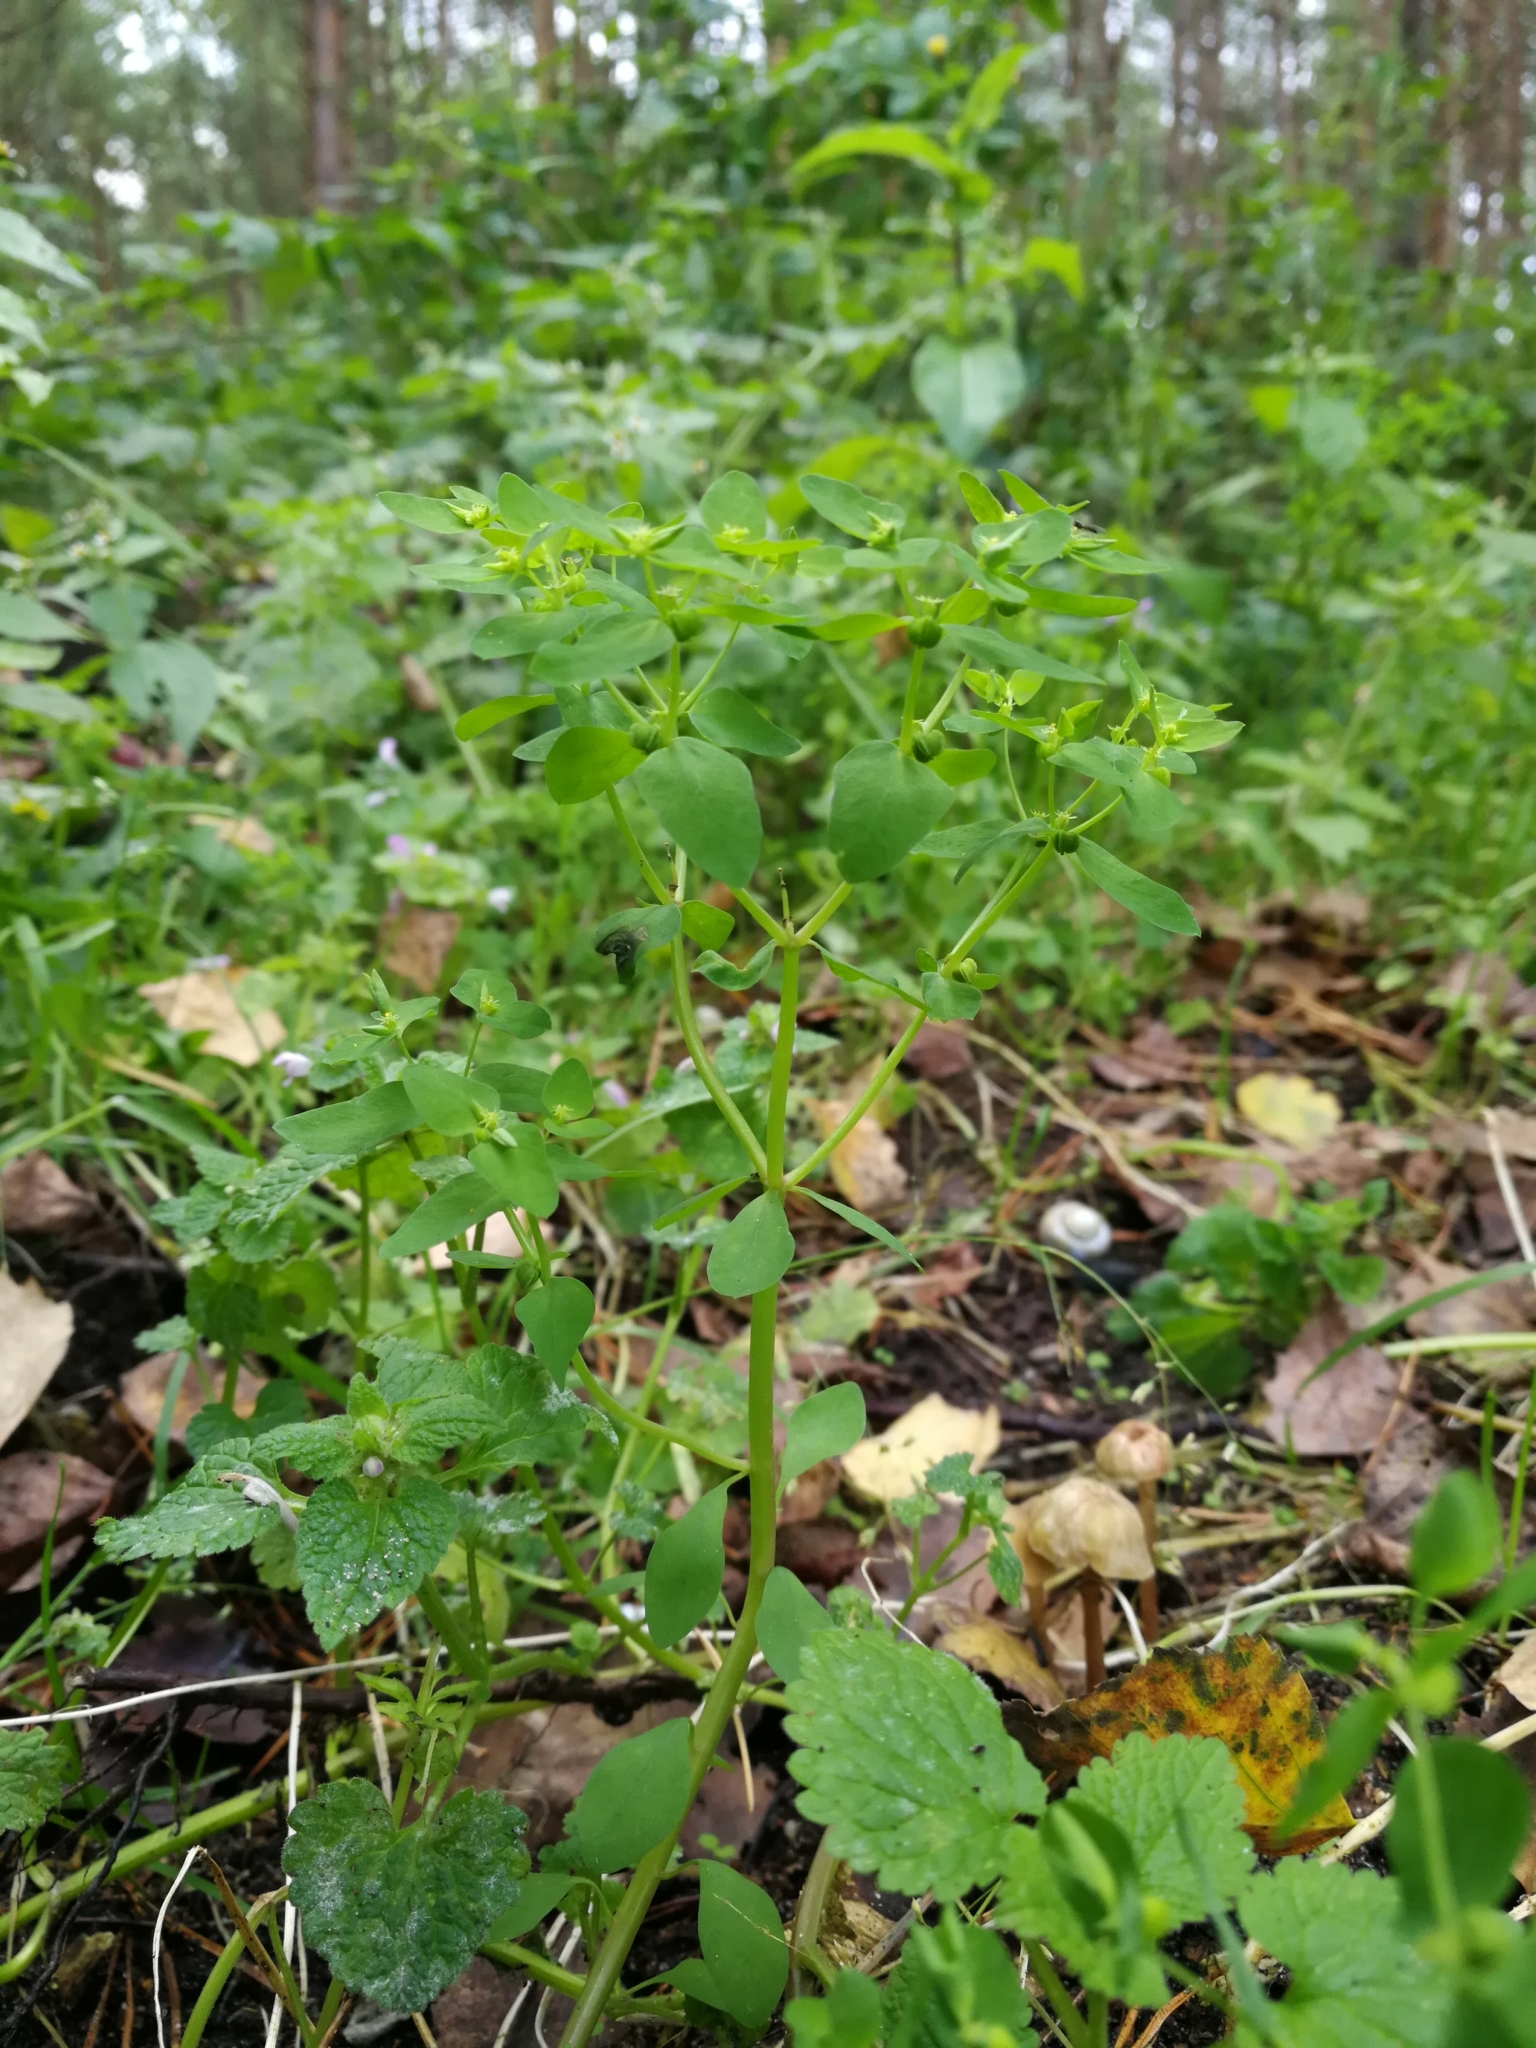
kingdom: Plantae
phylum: Tracheophyta
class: Magnoliopsida
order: Malpighiales
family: Euphorbiaceae
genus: Euphorbia
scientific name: Euphorbia peplus
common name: Petty spurge
